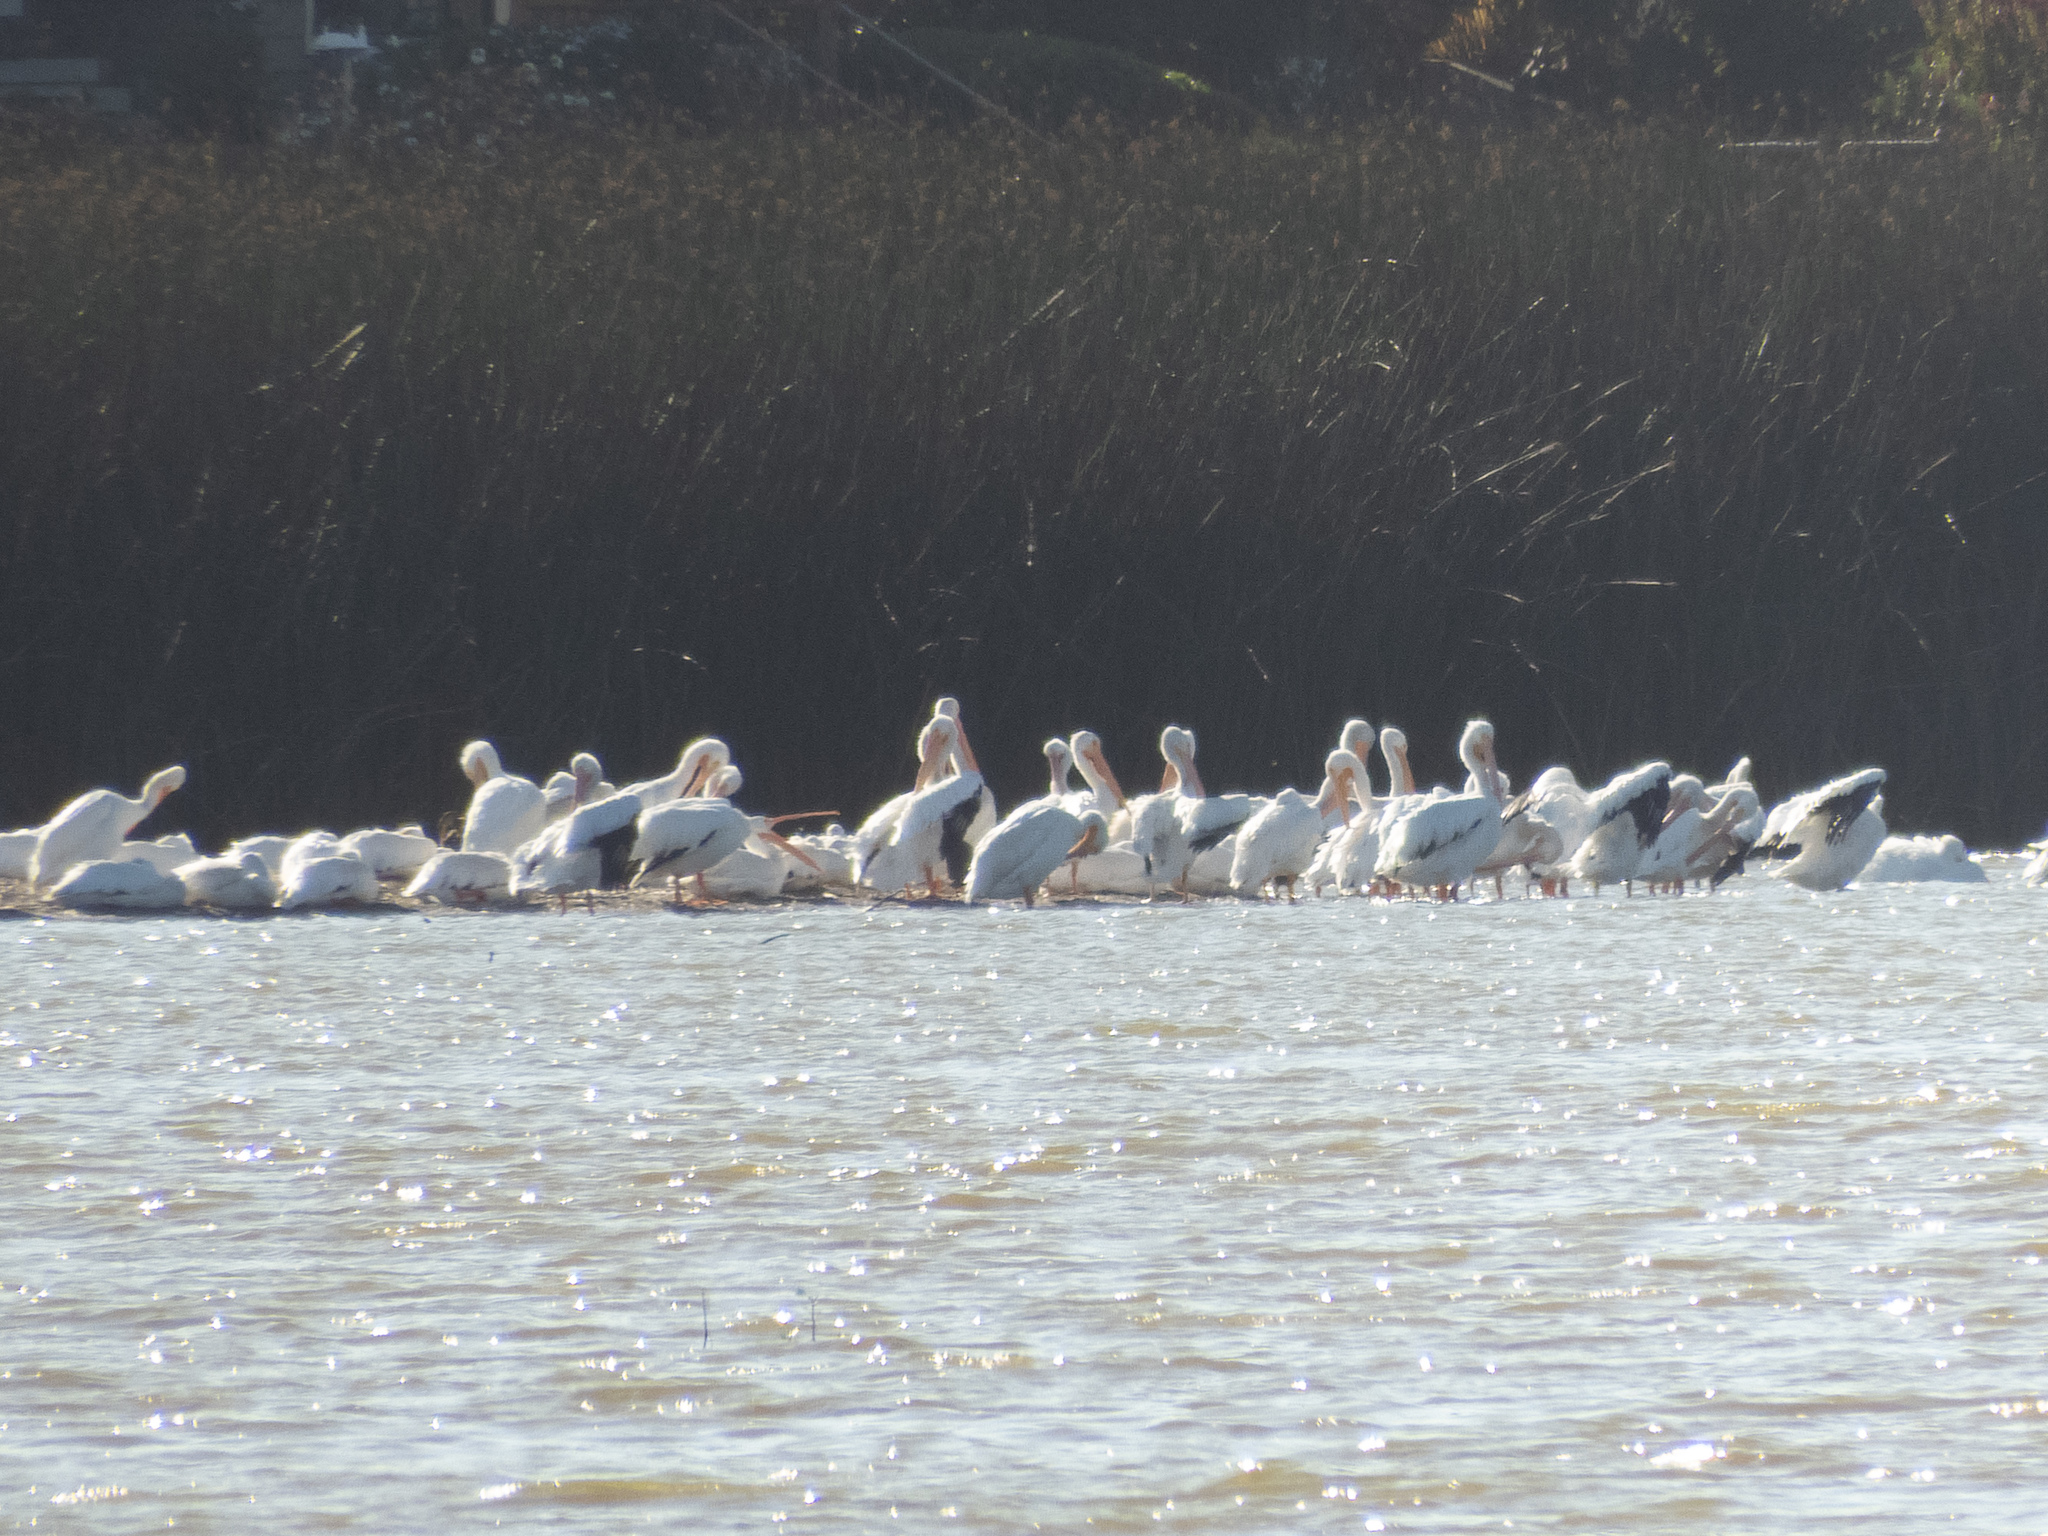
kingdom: Animalia
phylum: Chordata
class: Aves
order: Pelecaniformes
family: Pelecanidae
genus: Pelecanus
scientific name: Pelecanus erythrorhynchos
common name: American white pelican
